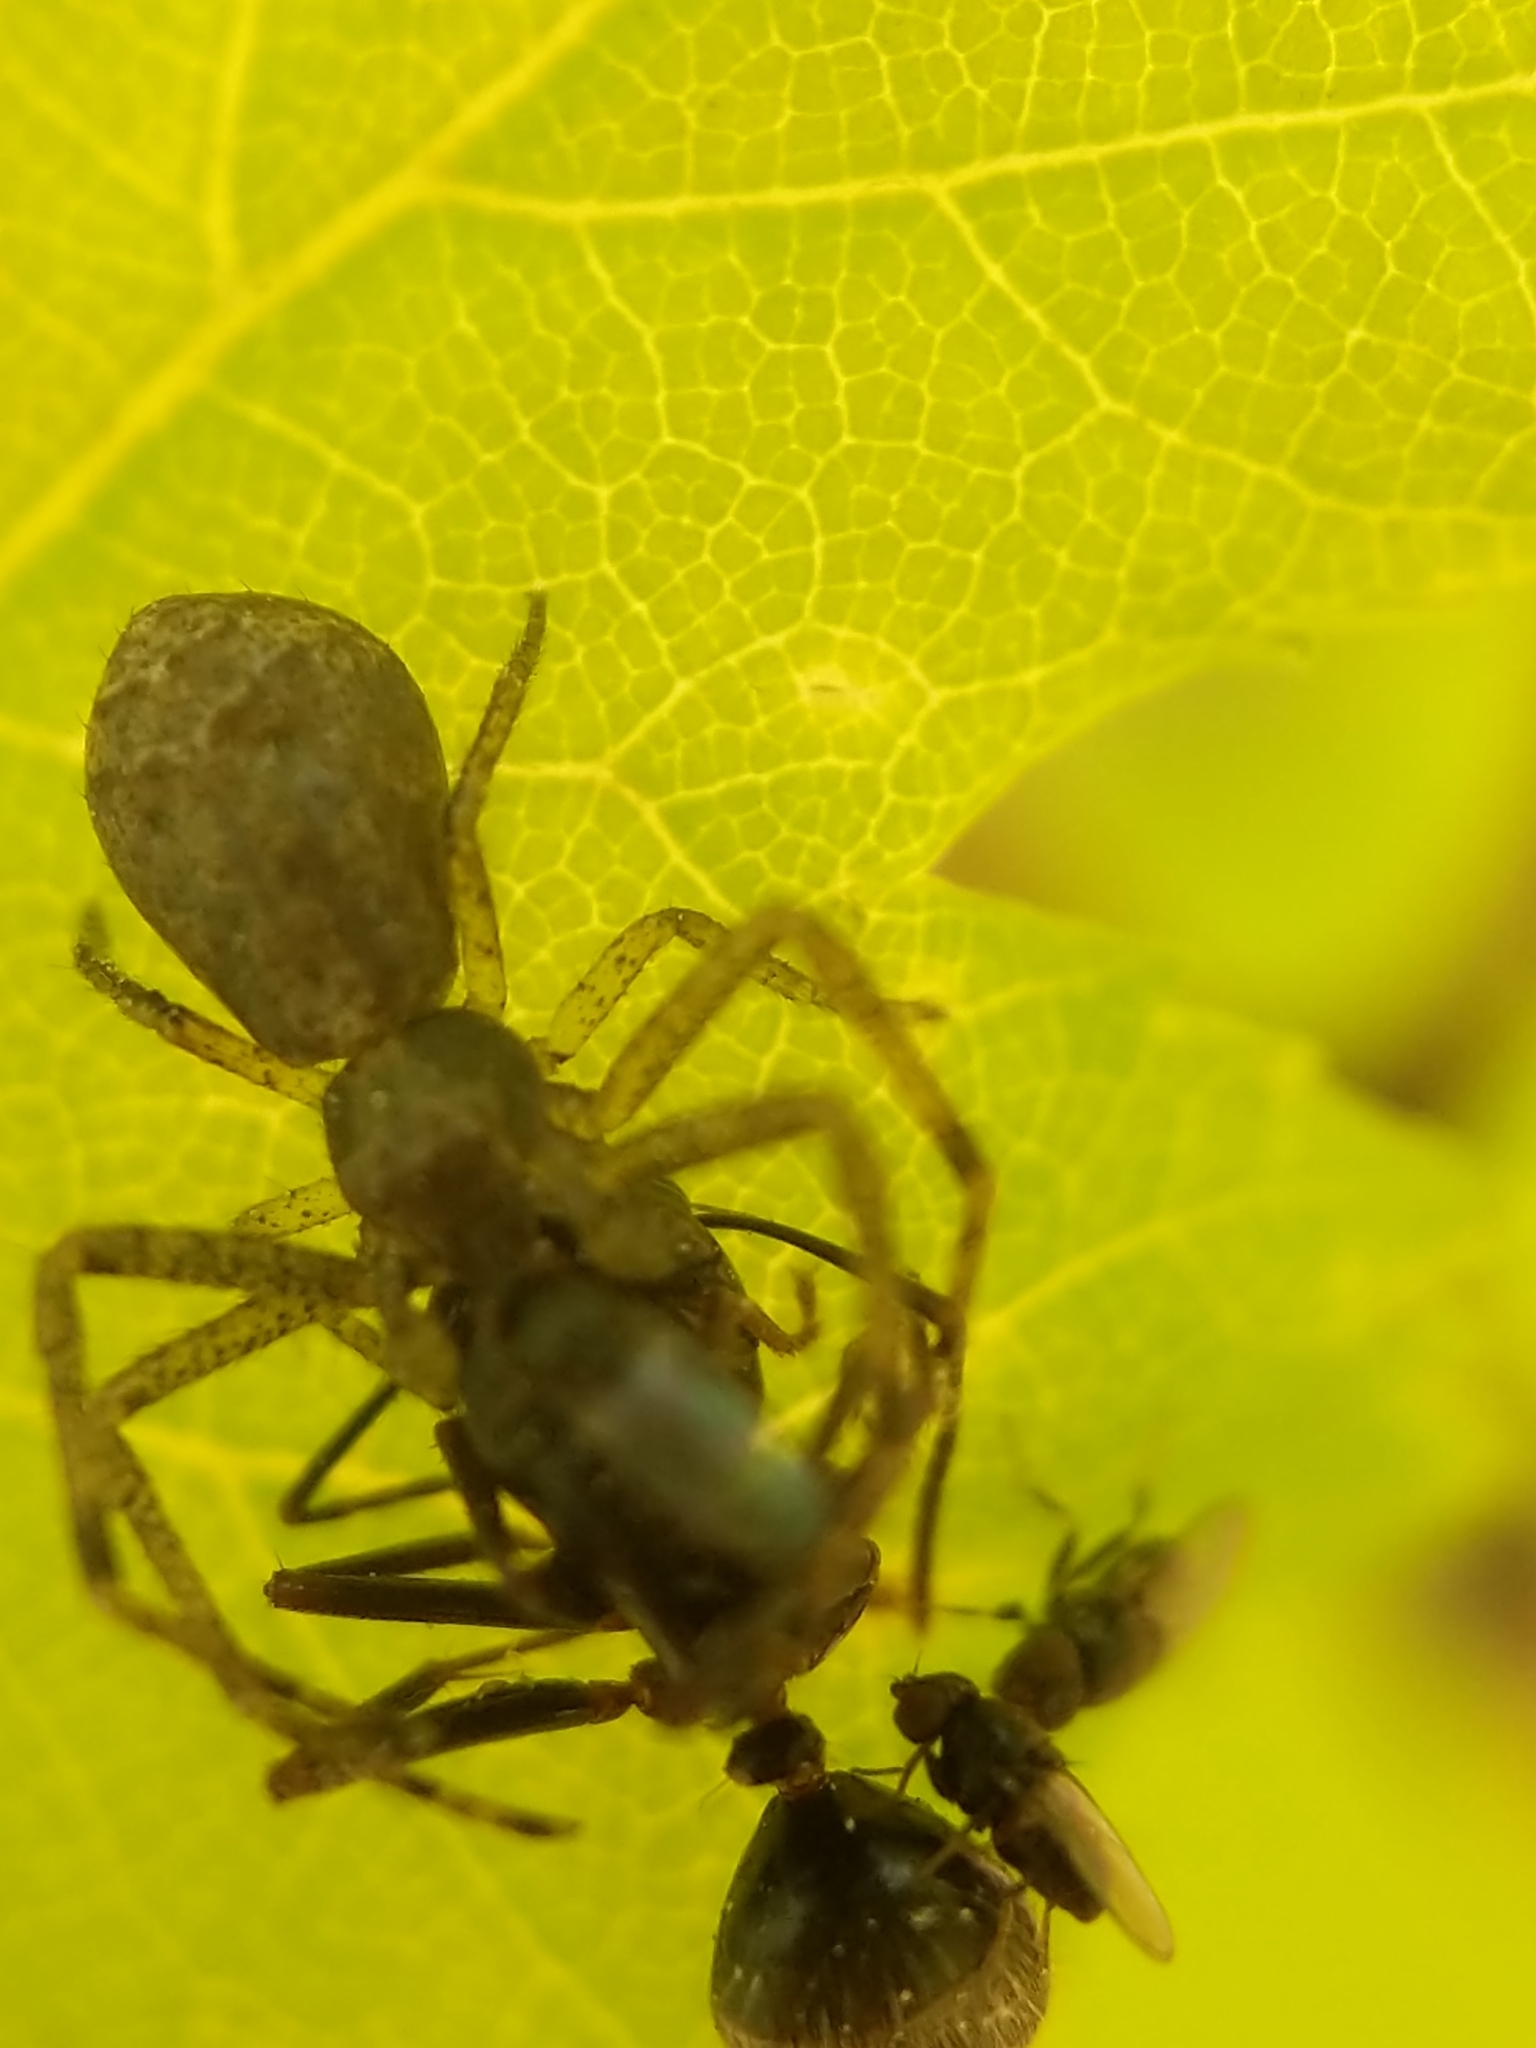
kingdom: Animalia
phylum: Arthropoda
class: Insecta
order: Hymenoptera
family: Formicidae
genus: Camponotus
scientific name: Camponotus pennsylvanicus
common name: Black carpenter ant
